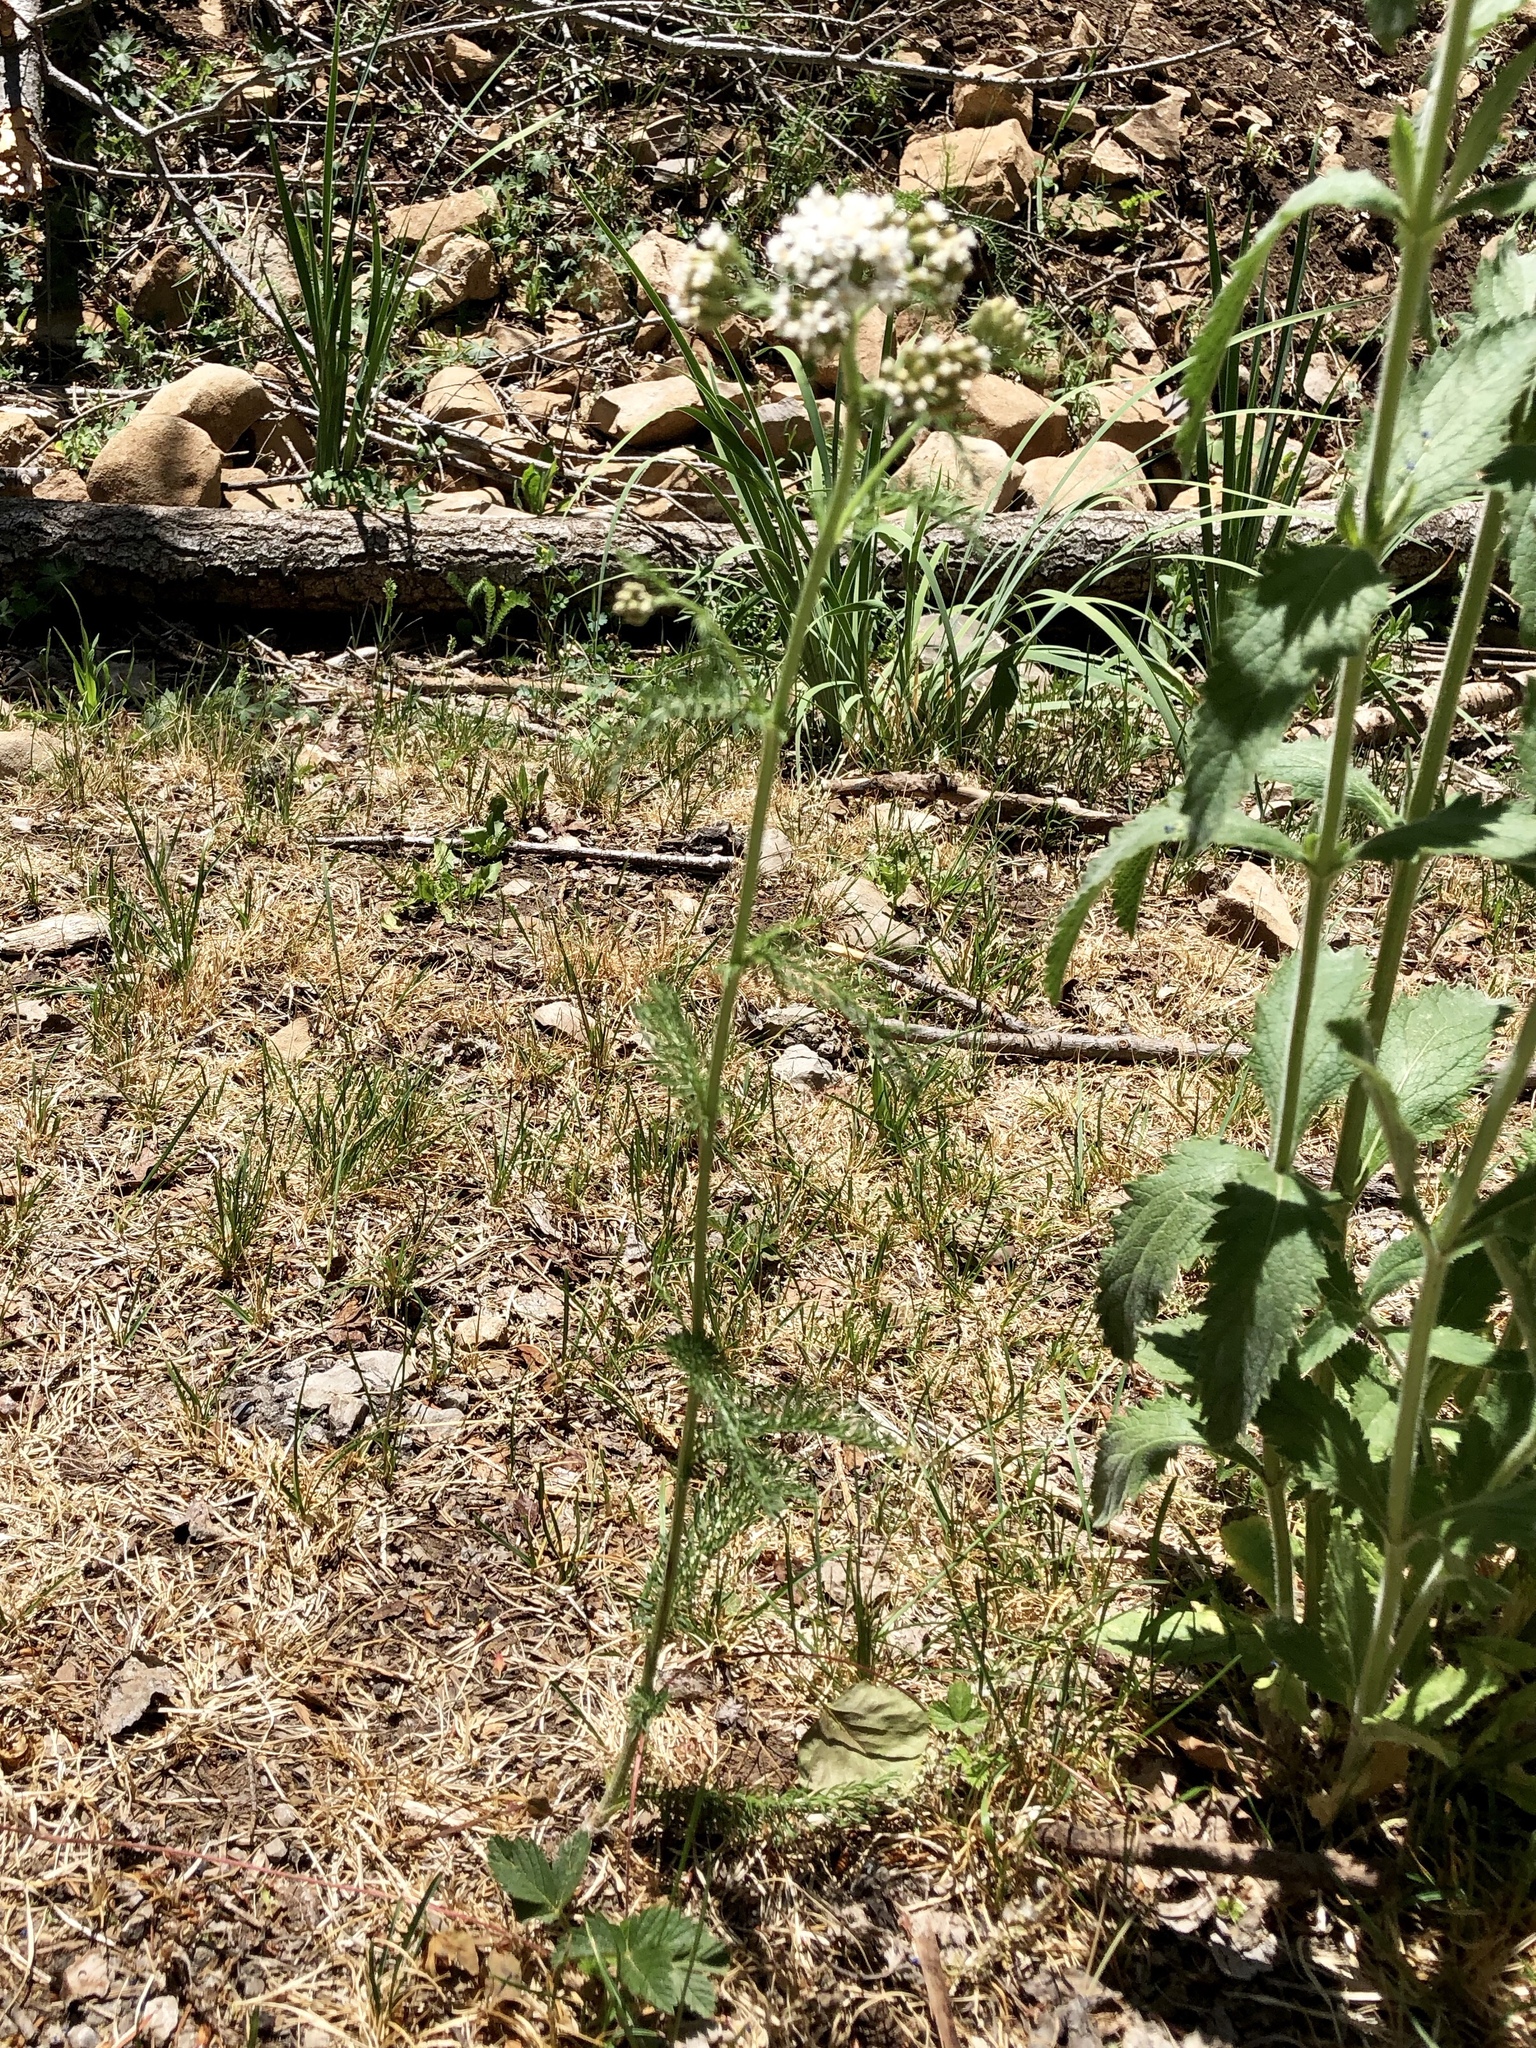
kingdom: Plantae
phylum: Tracheophyta
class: Magnoliopsida
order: Asterales
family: Asteraceae
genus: Achillea
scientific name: Achillea millefolium
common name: Yarrow
